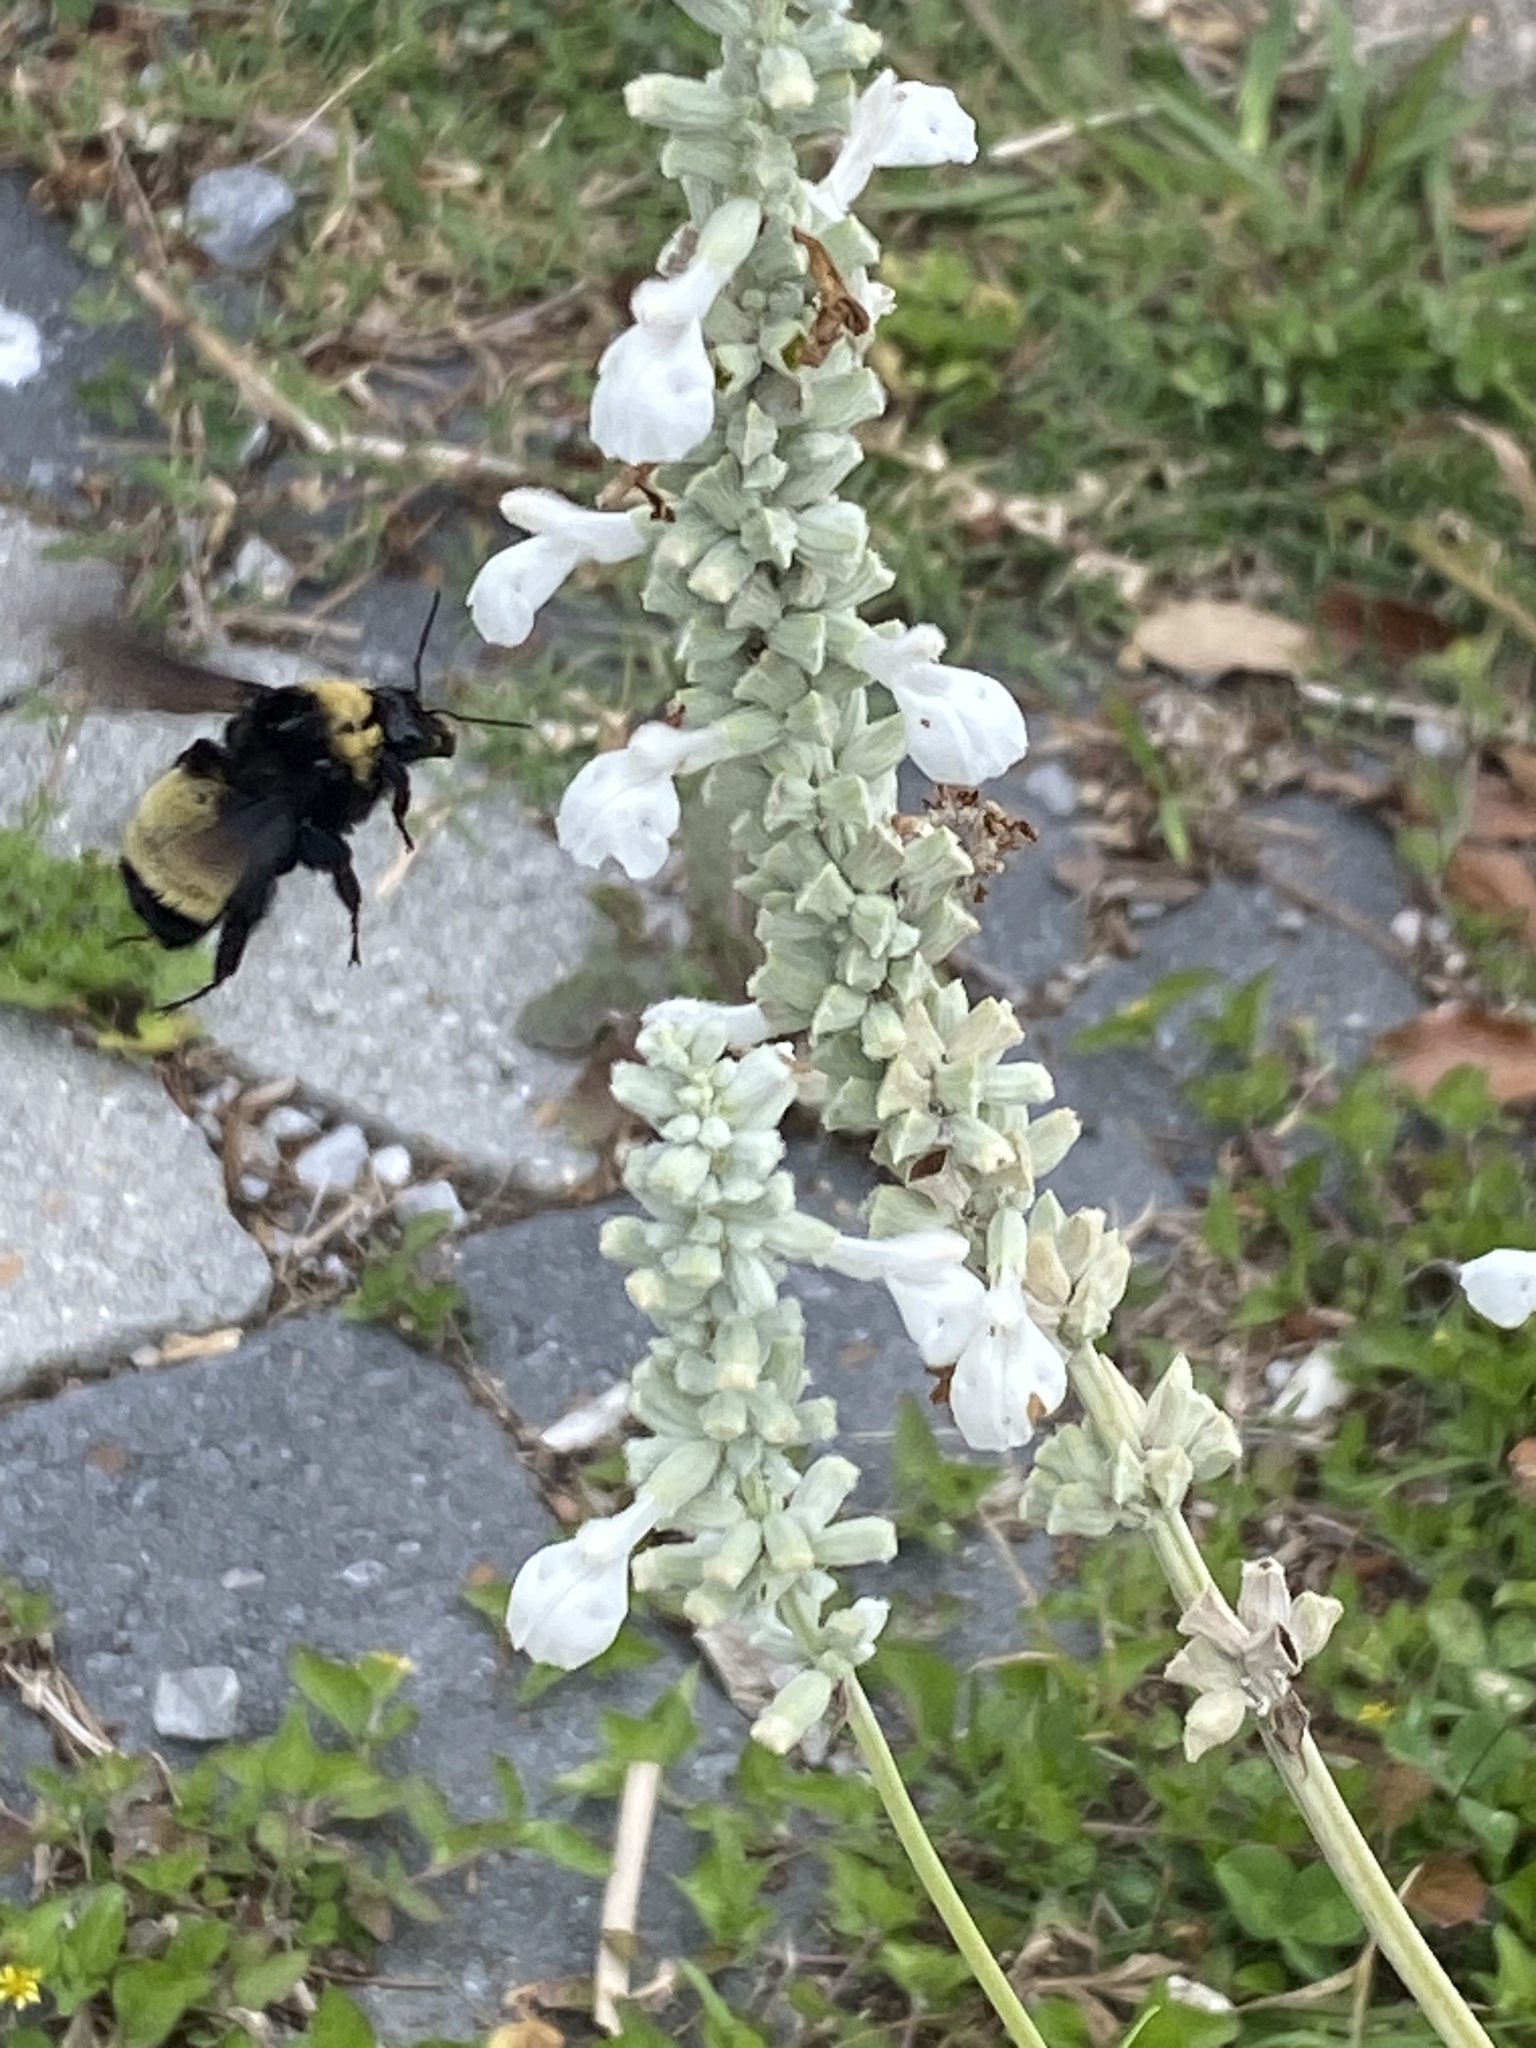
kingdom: Animalia
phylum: Arthropoda
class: Insecta
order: Hymenoptera
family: Apidae
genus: Bombus
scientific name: Bombus pensylvanicus
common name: Bumble bee
